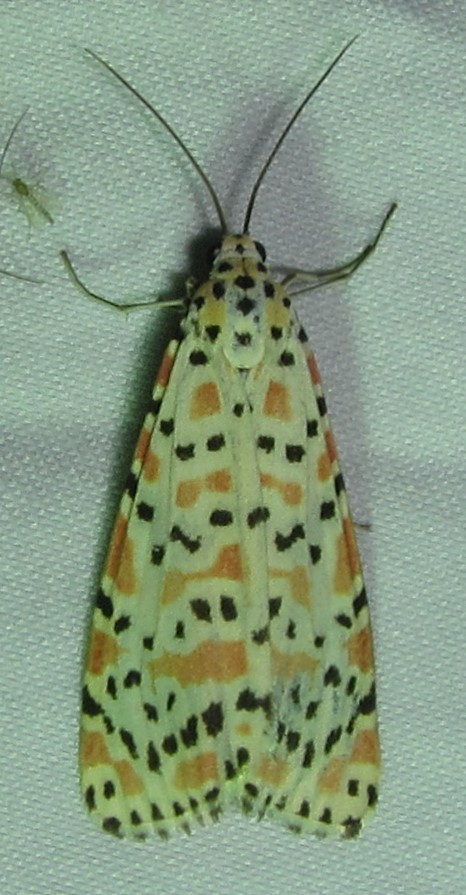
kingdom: Animalia
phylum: Arthropoda
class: Insecta
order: Lepidoptera
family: Erebidae
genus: Utetheisa
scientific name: Utetheisa pulchella
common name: Crimson speckled
